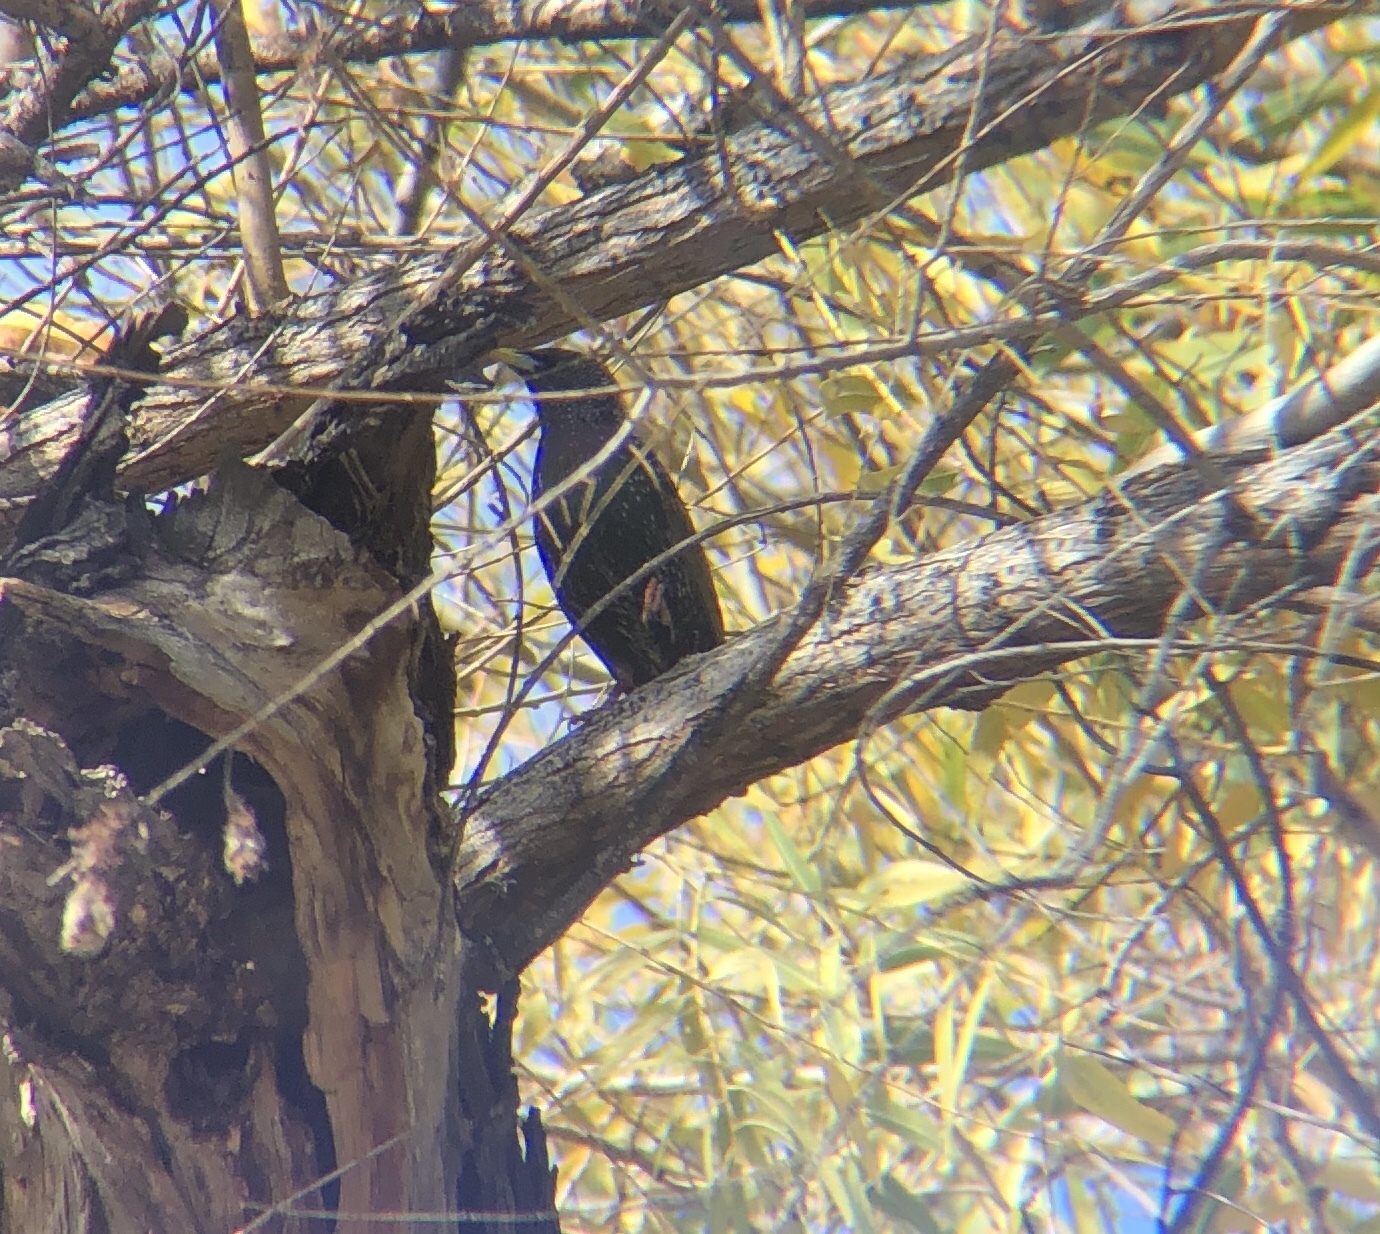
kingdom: Animalia
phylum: Chordata
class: Aves
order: Passeriformes
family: Sturnidae
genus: Sturnus
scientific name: Sturnus vulgaris
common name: Common starling
